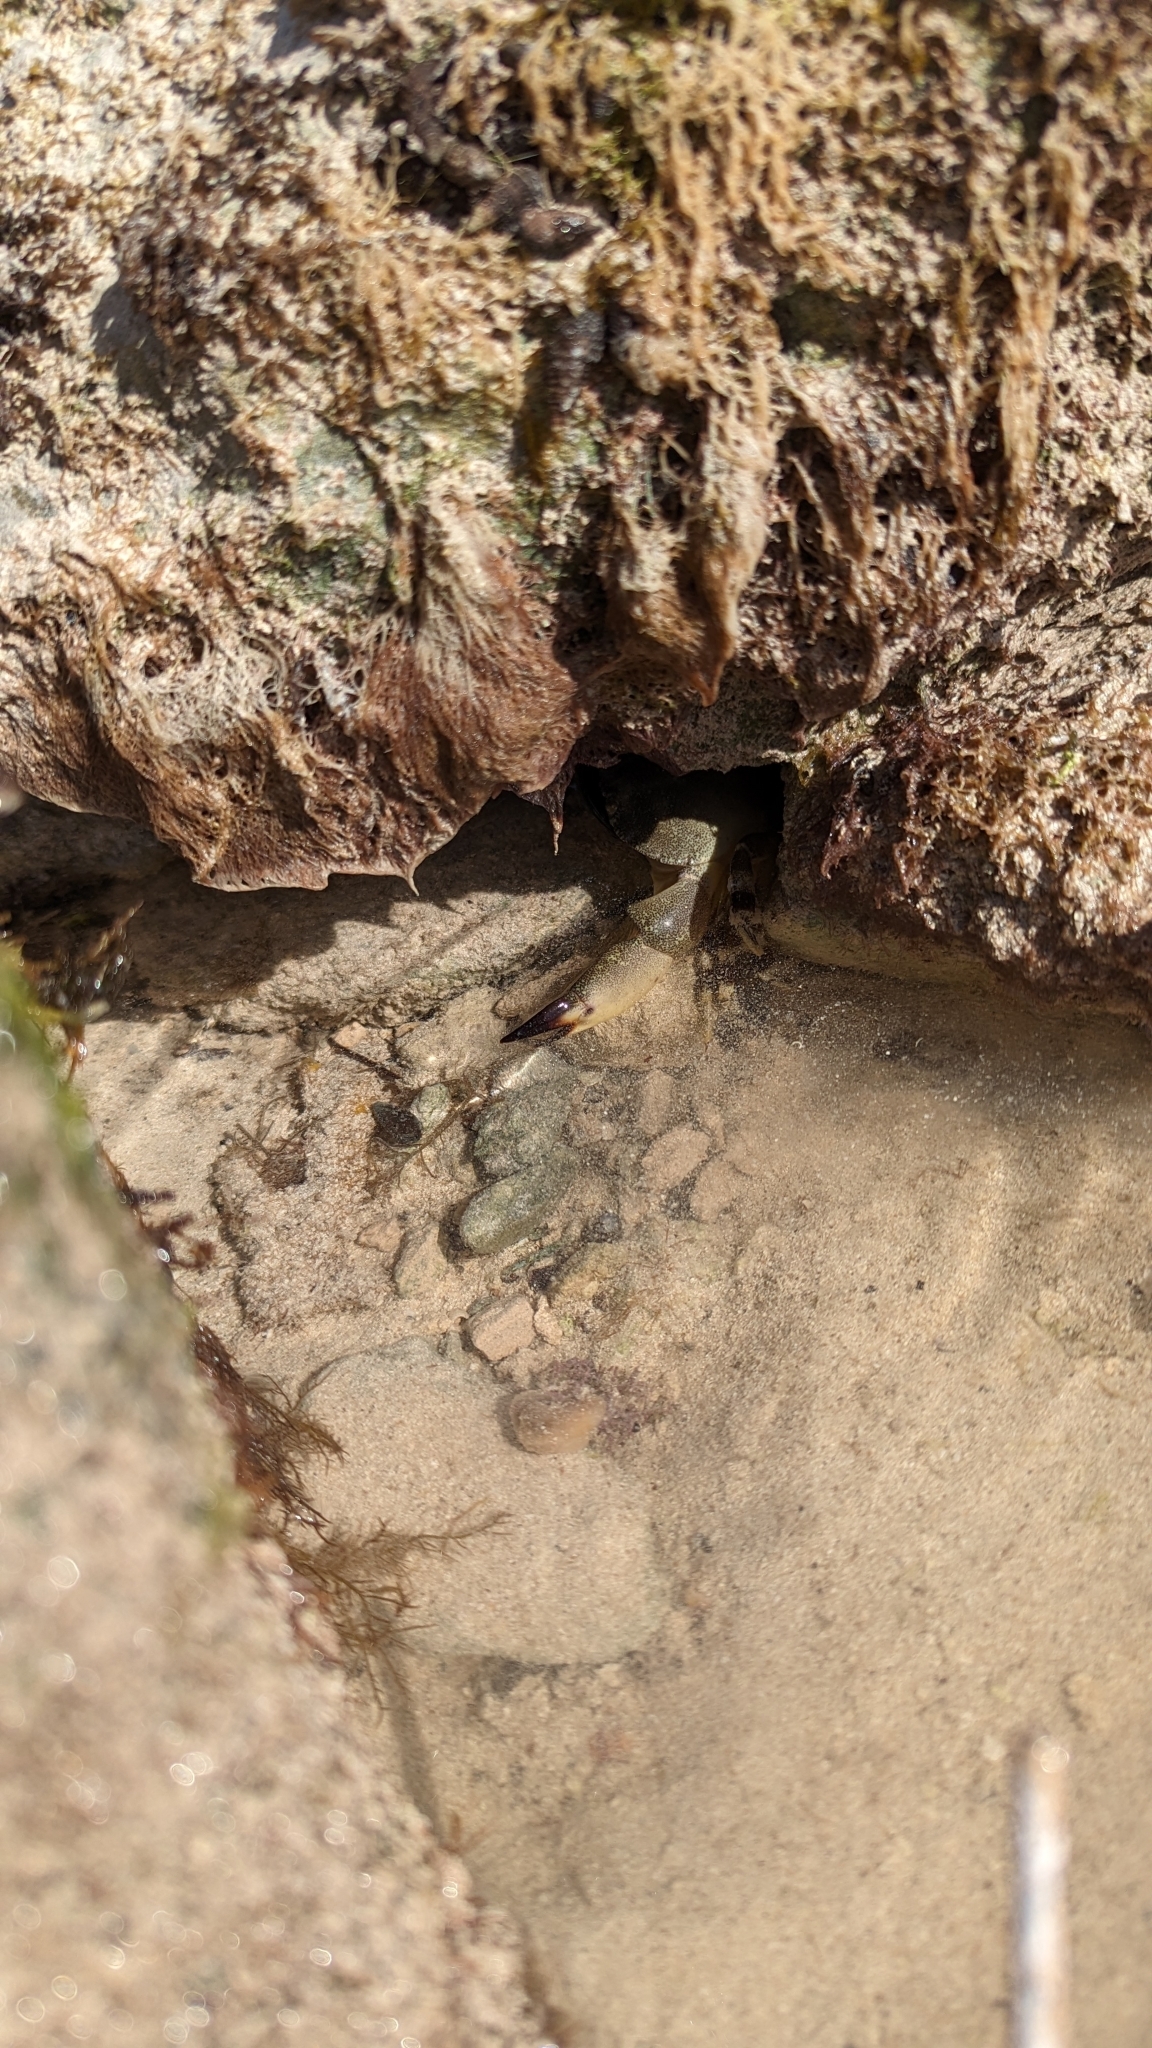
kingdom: Animalia
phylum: Arthropoda
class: Malacostraca
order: Decapoda
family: Menippidae
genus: Menippe
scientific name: Menippe mercenaria
